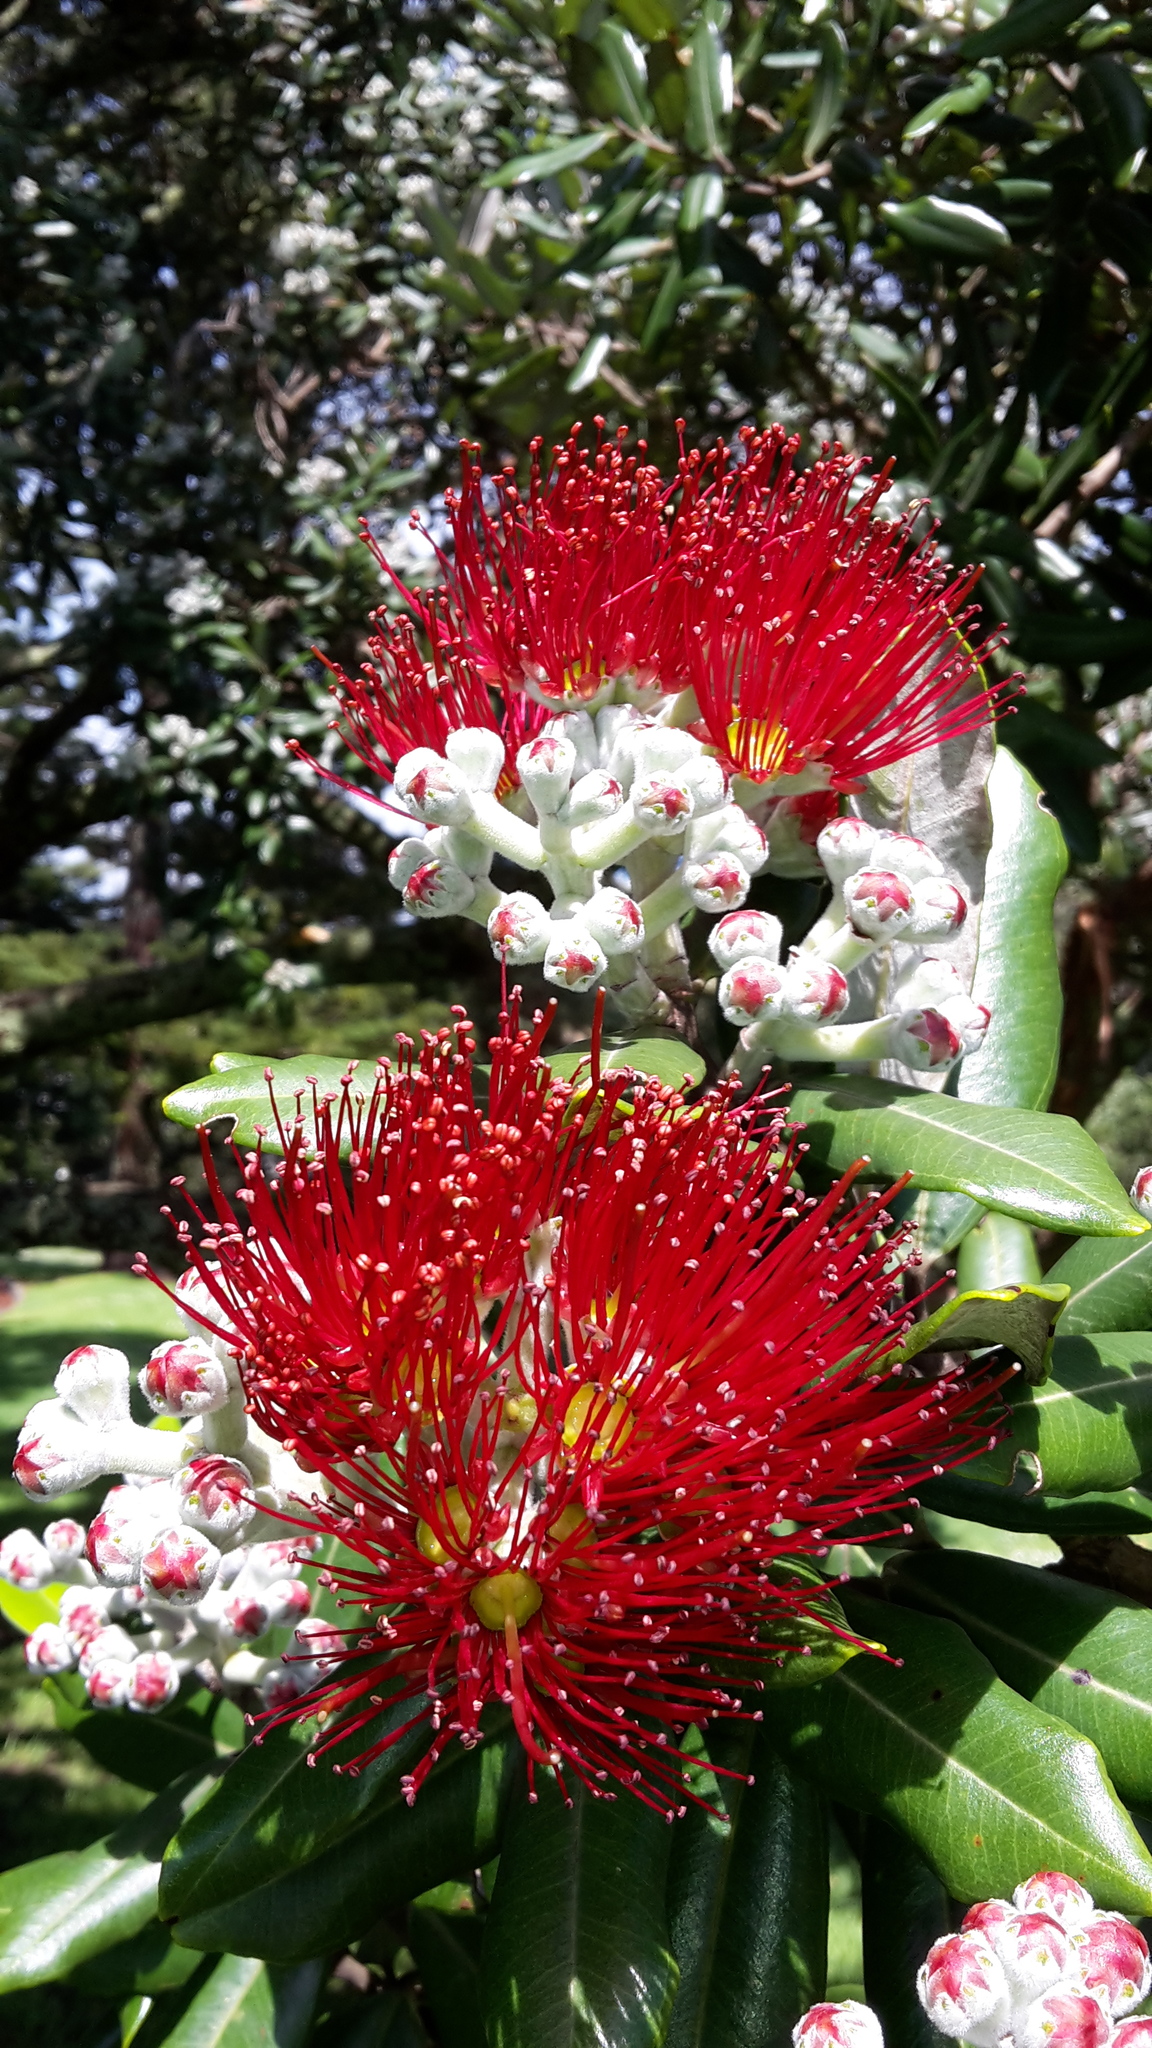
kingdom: Plantae
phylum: Tracheophyta
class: Magnoliopsida
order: Myrtales
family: Myrtaceae
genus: Metrosideros
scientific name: Metrosideros excelsa
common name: New zealand christmastree
